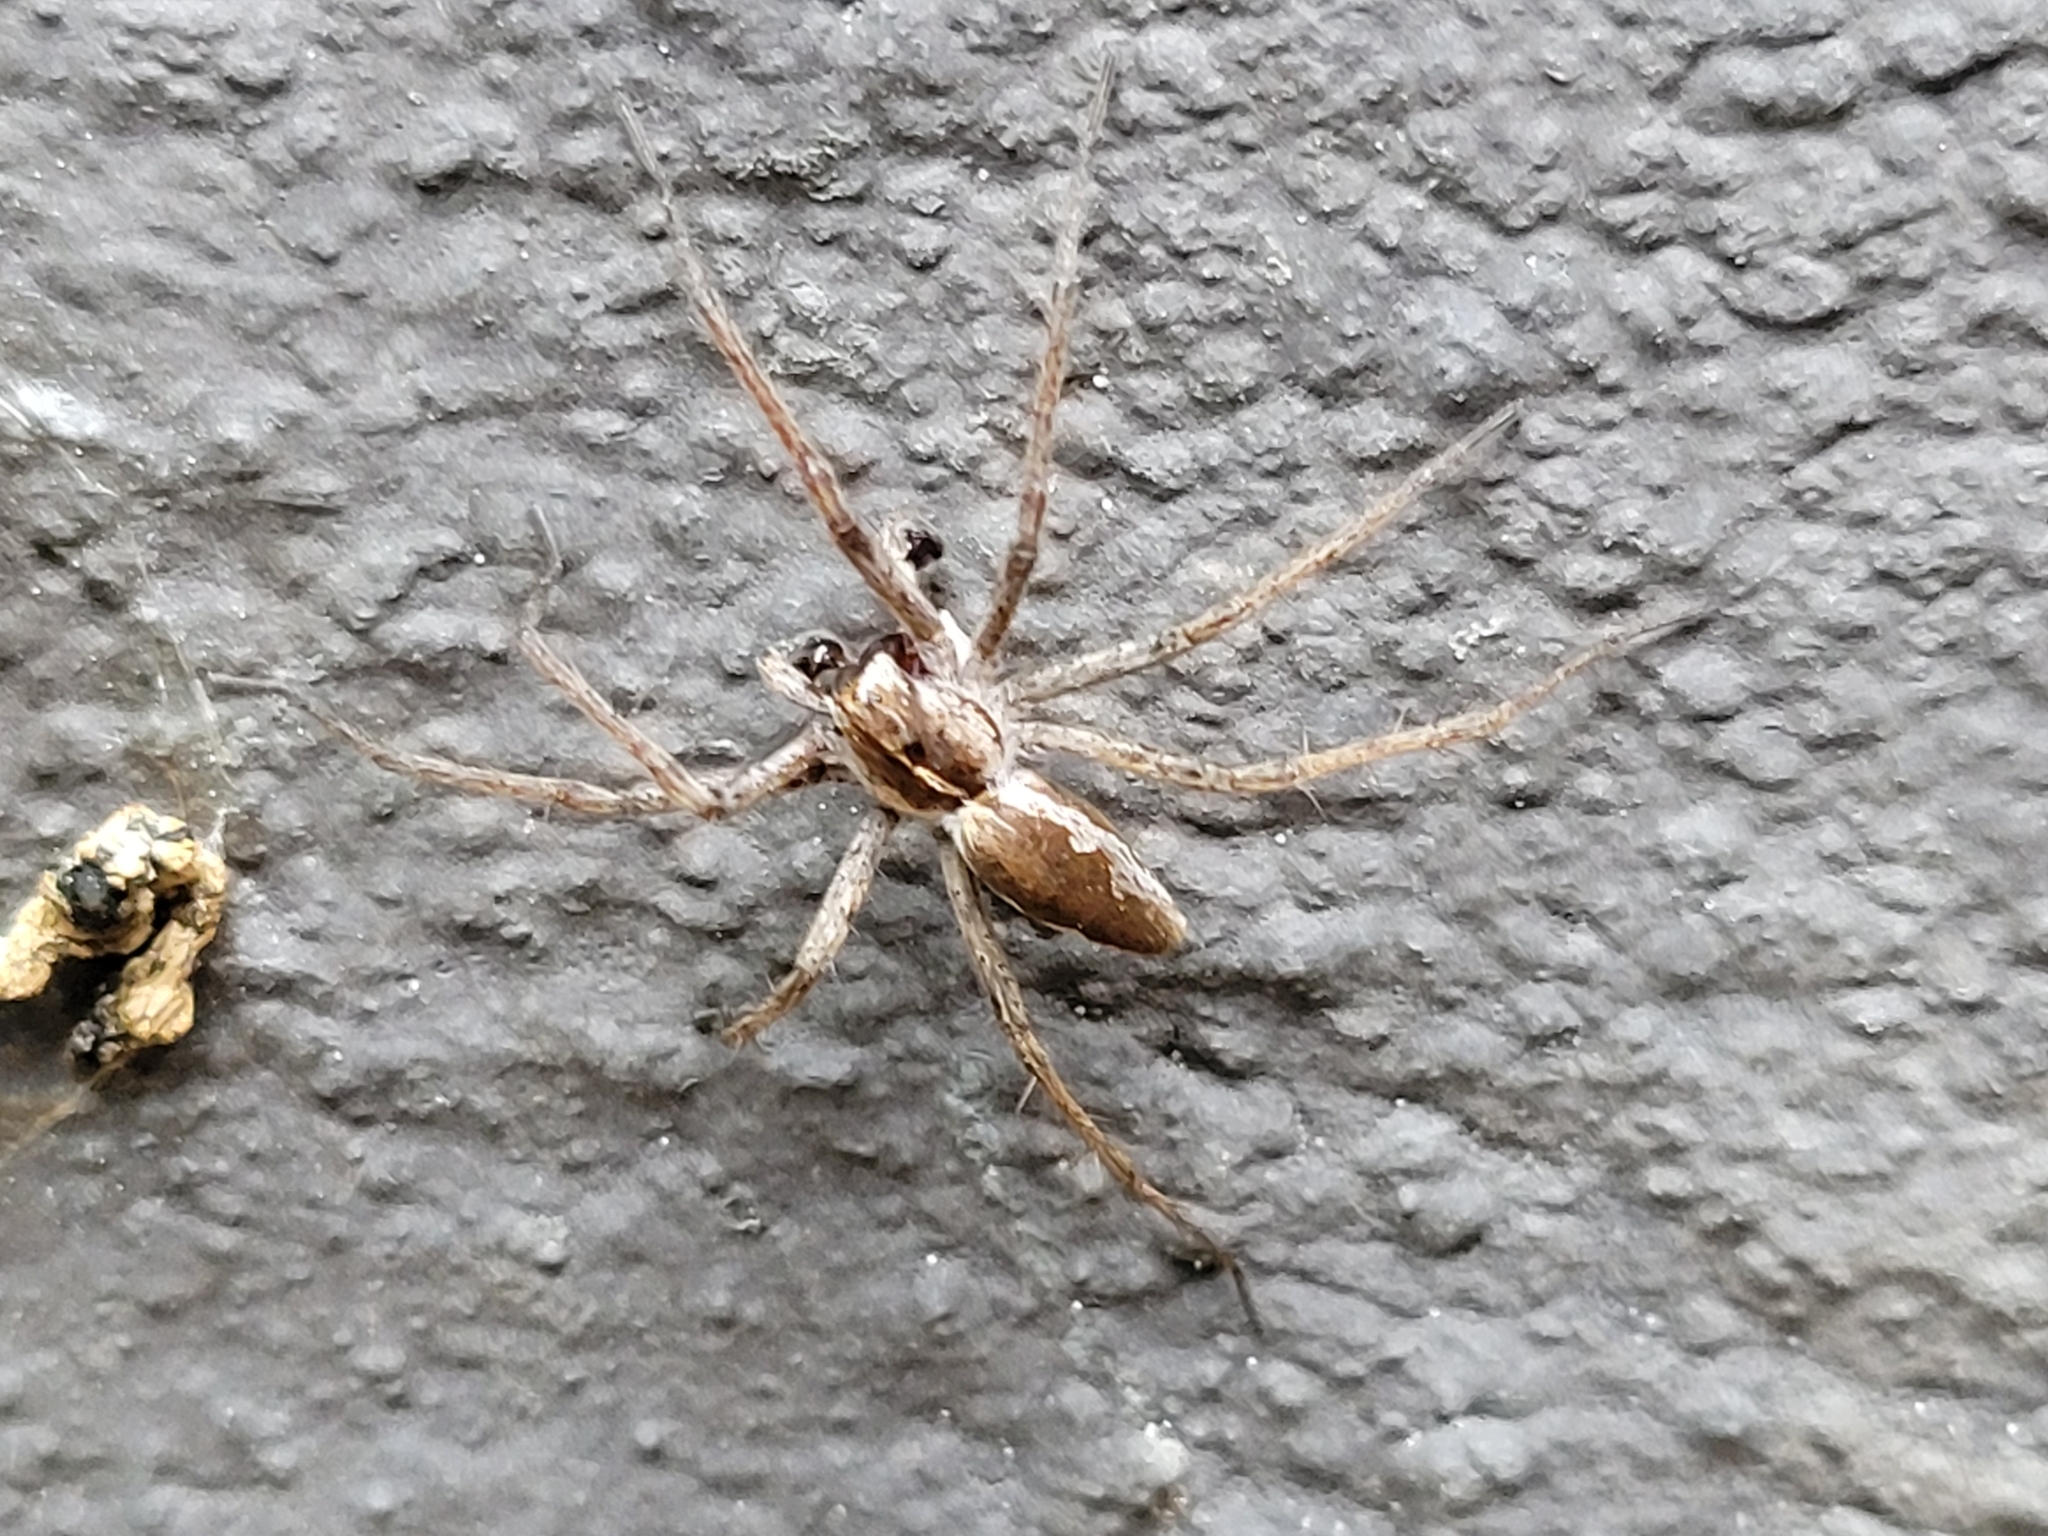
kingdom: Animalia
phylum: Arthropoda
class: Arachnida
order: Araneae
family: Pisauridae
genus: Pisaura
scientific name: Pisaura mirabilis
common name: Tent spider
